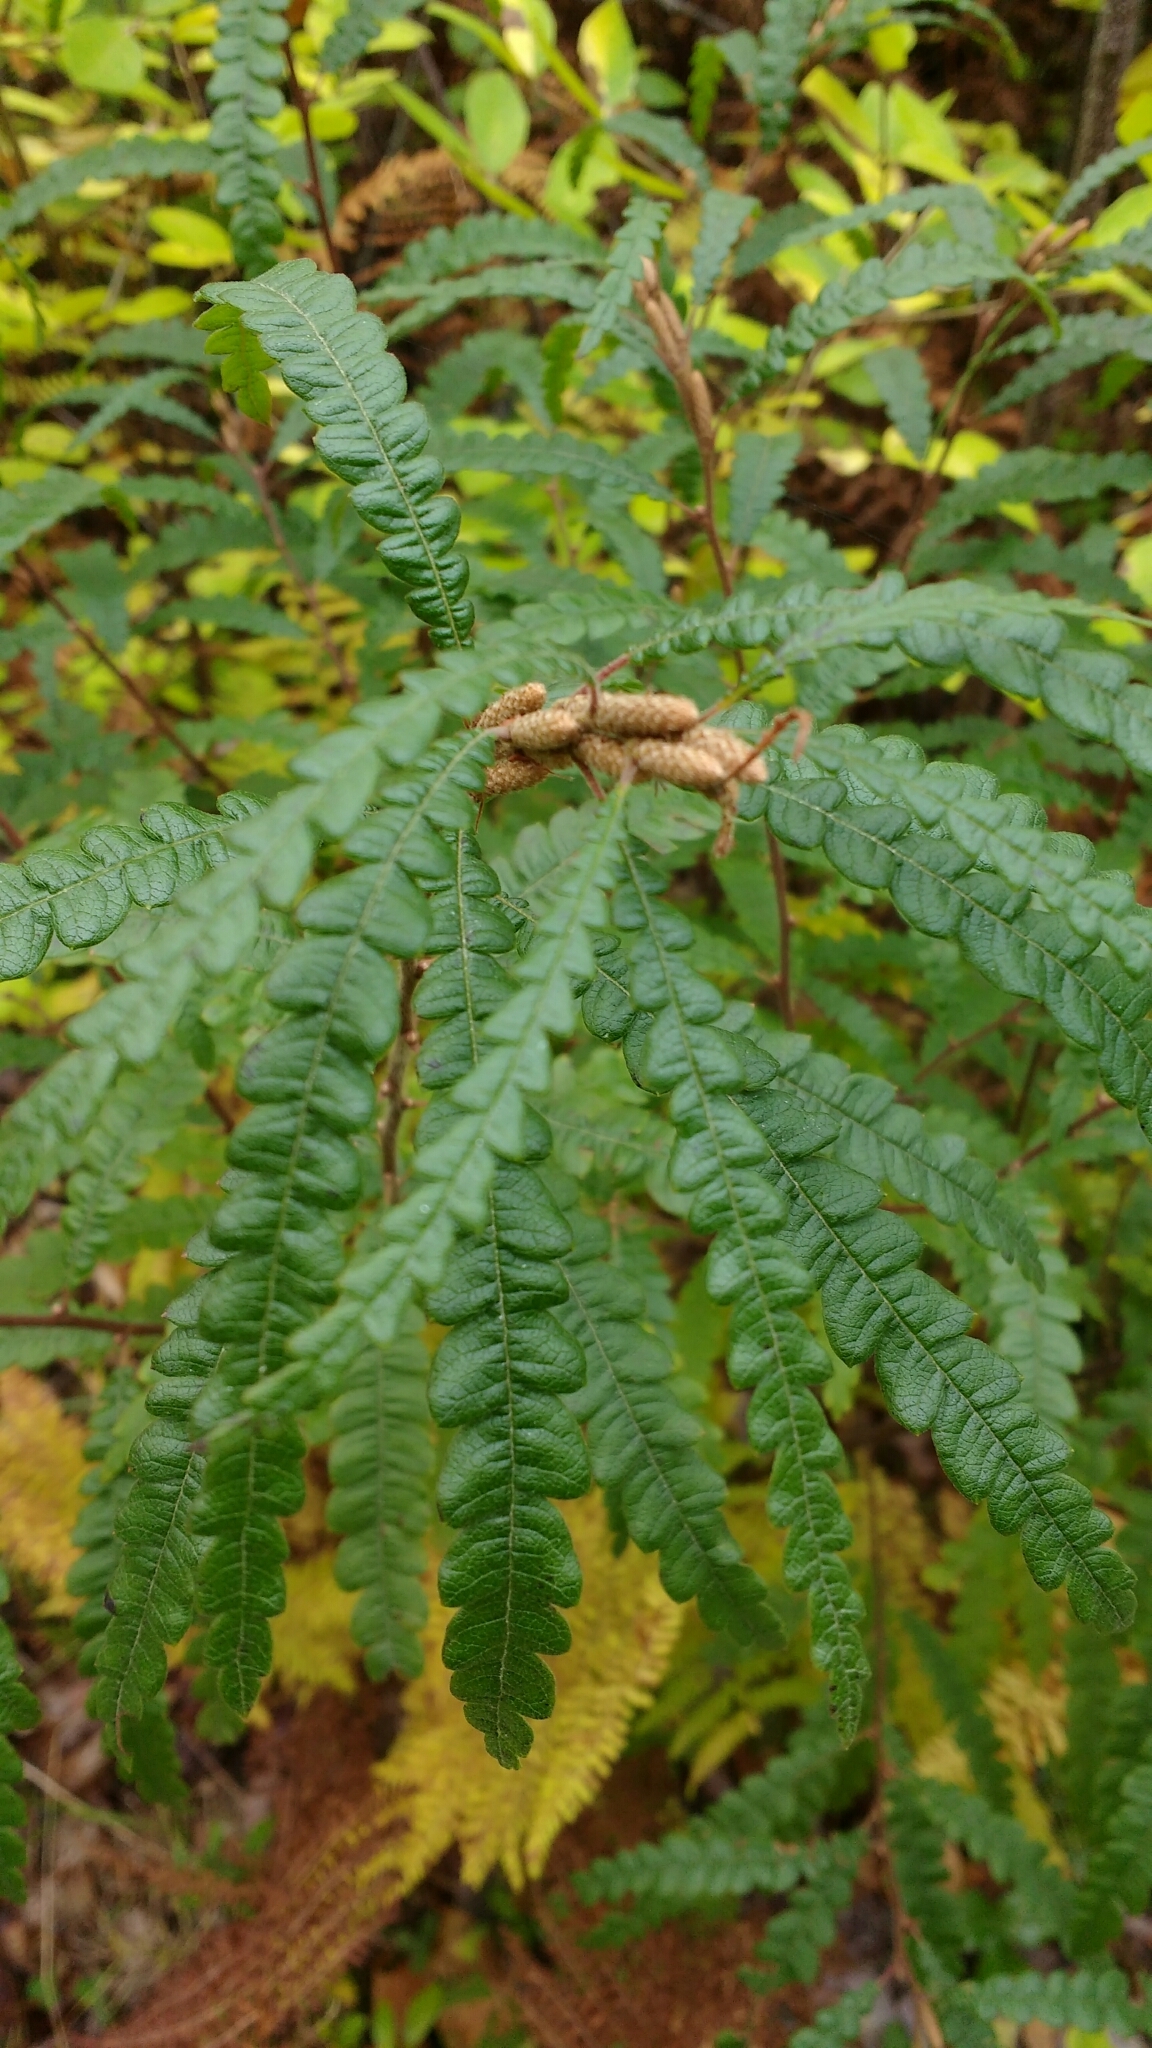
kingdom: Plantae
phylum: Tracheophyta
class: Magnoliopsida
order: Fagales
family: Myricaceae
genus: Comptonia
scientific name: Comptonia peregrina
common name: Sweet-fern
